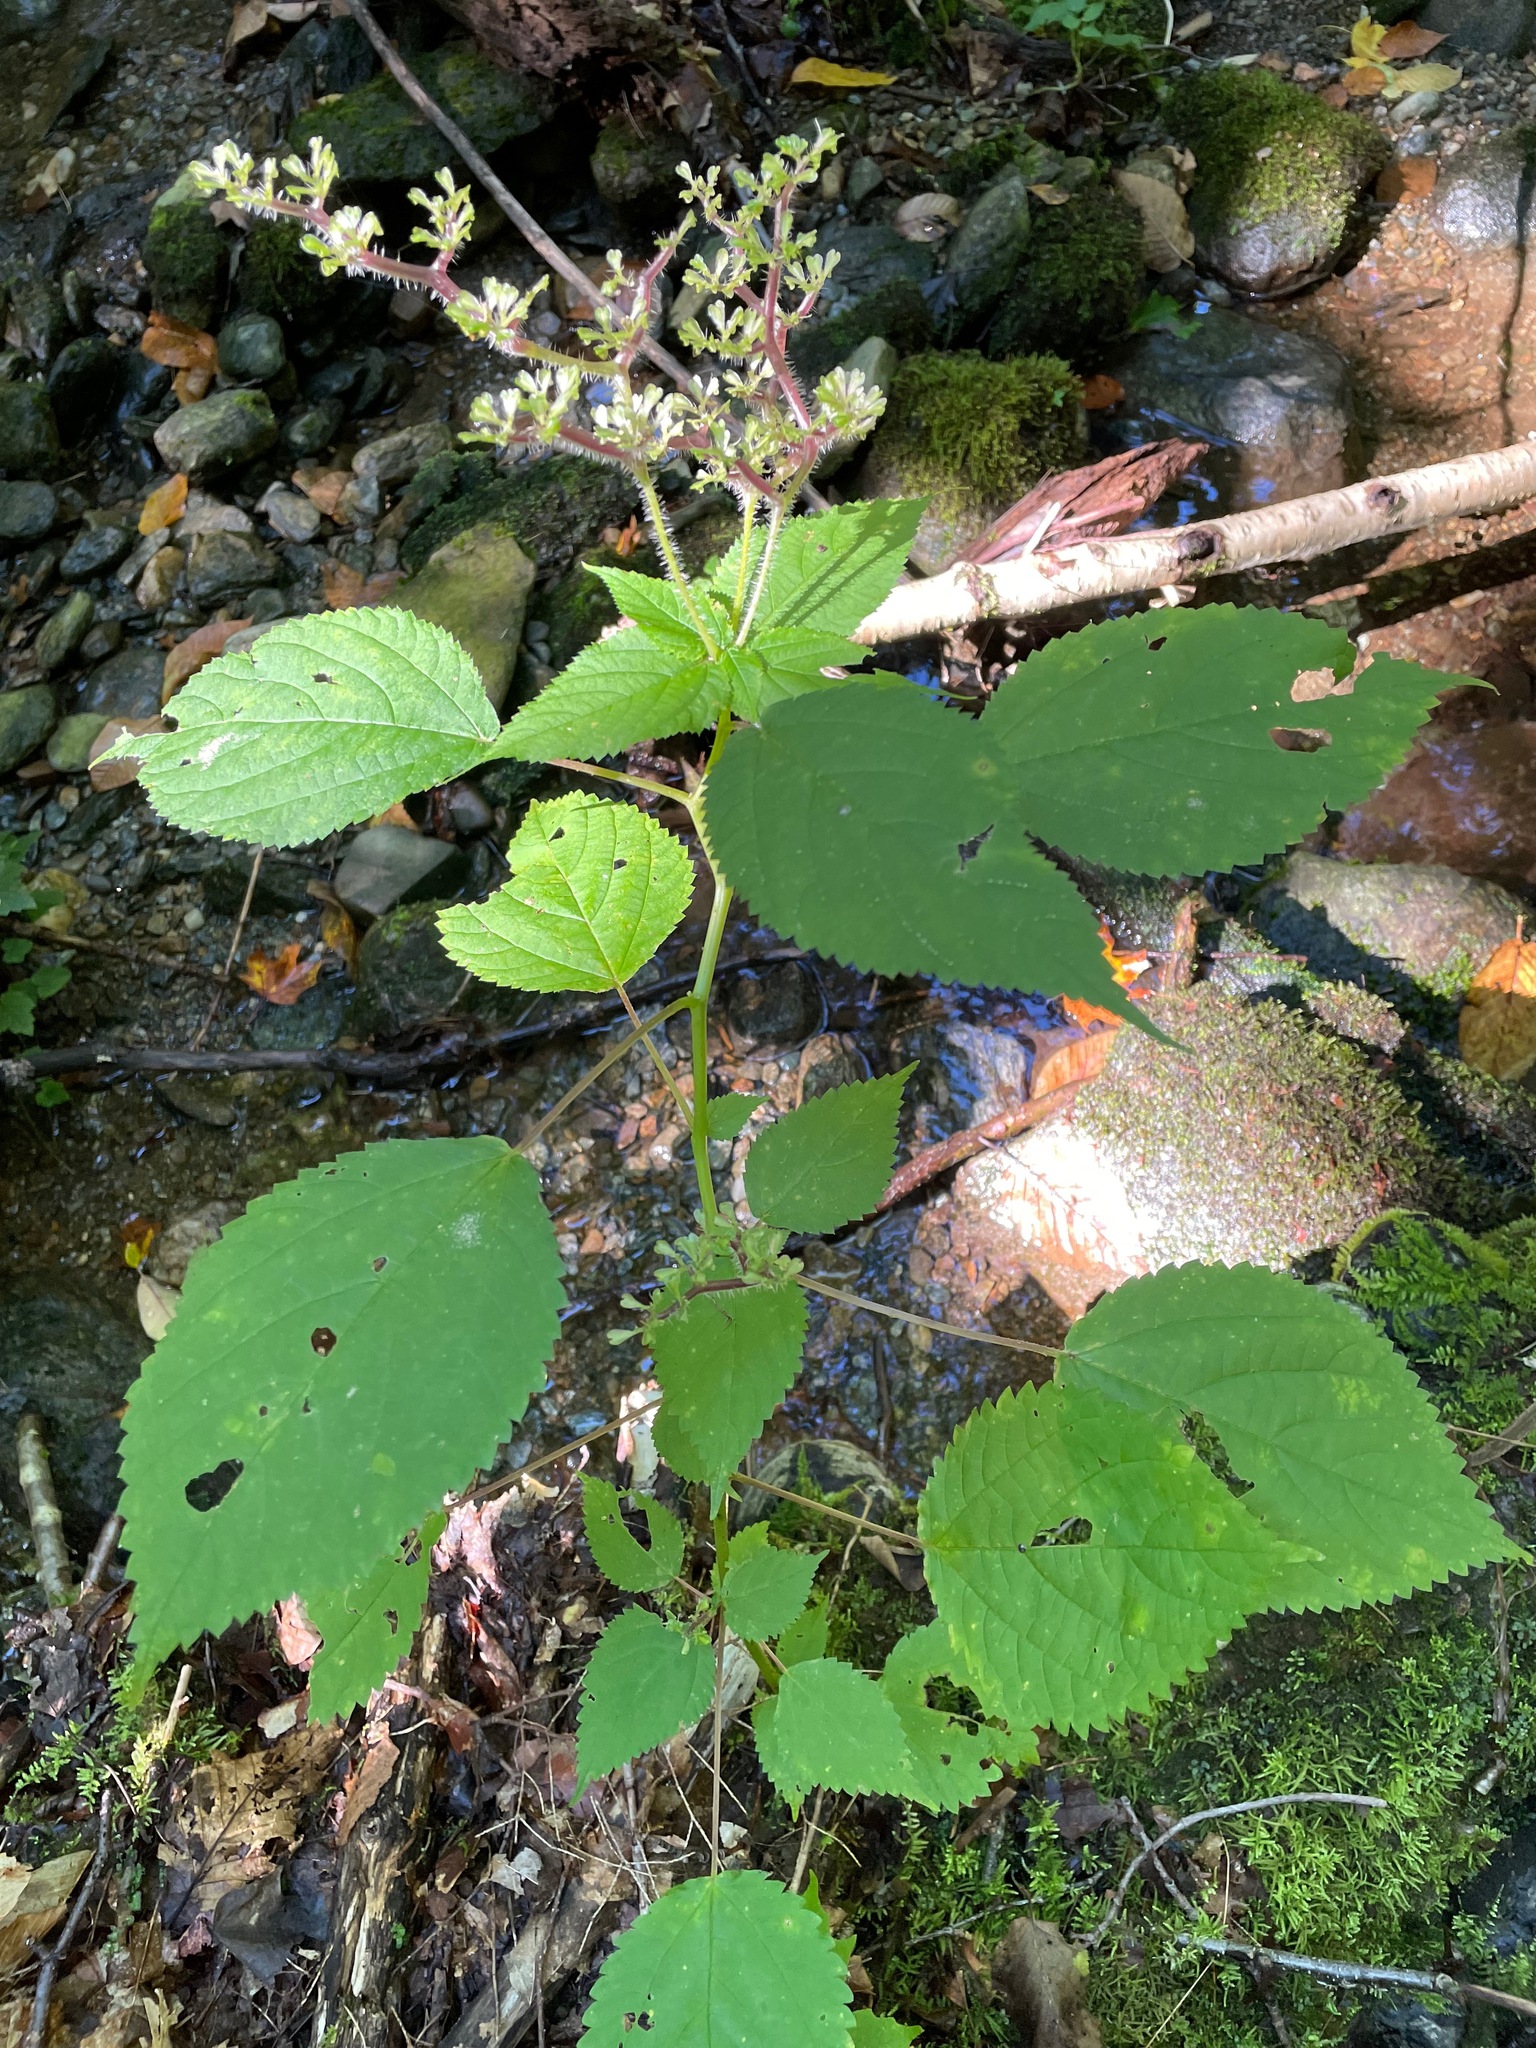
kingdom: Plantae
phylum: Tracheophyta
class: Magnoliopsida
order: Rosales
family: Urticaceae
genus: Laportea
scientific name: Laportea canadensis
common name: Canada nettle
